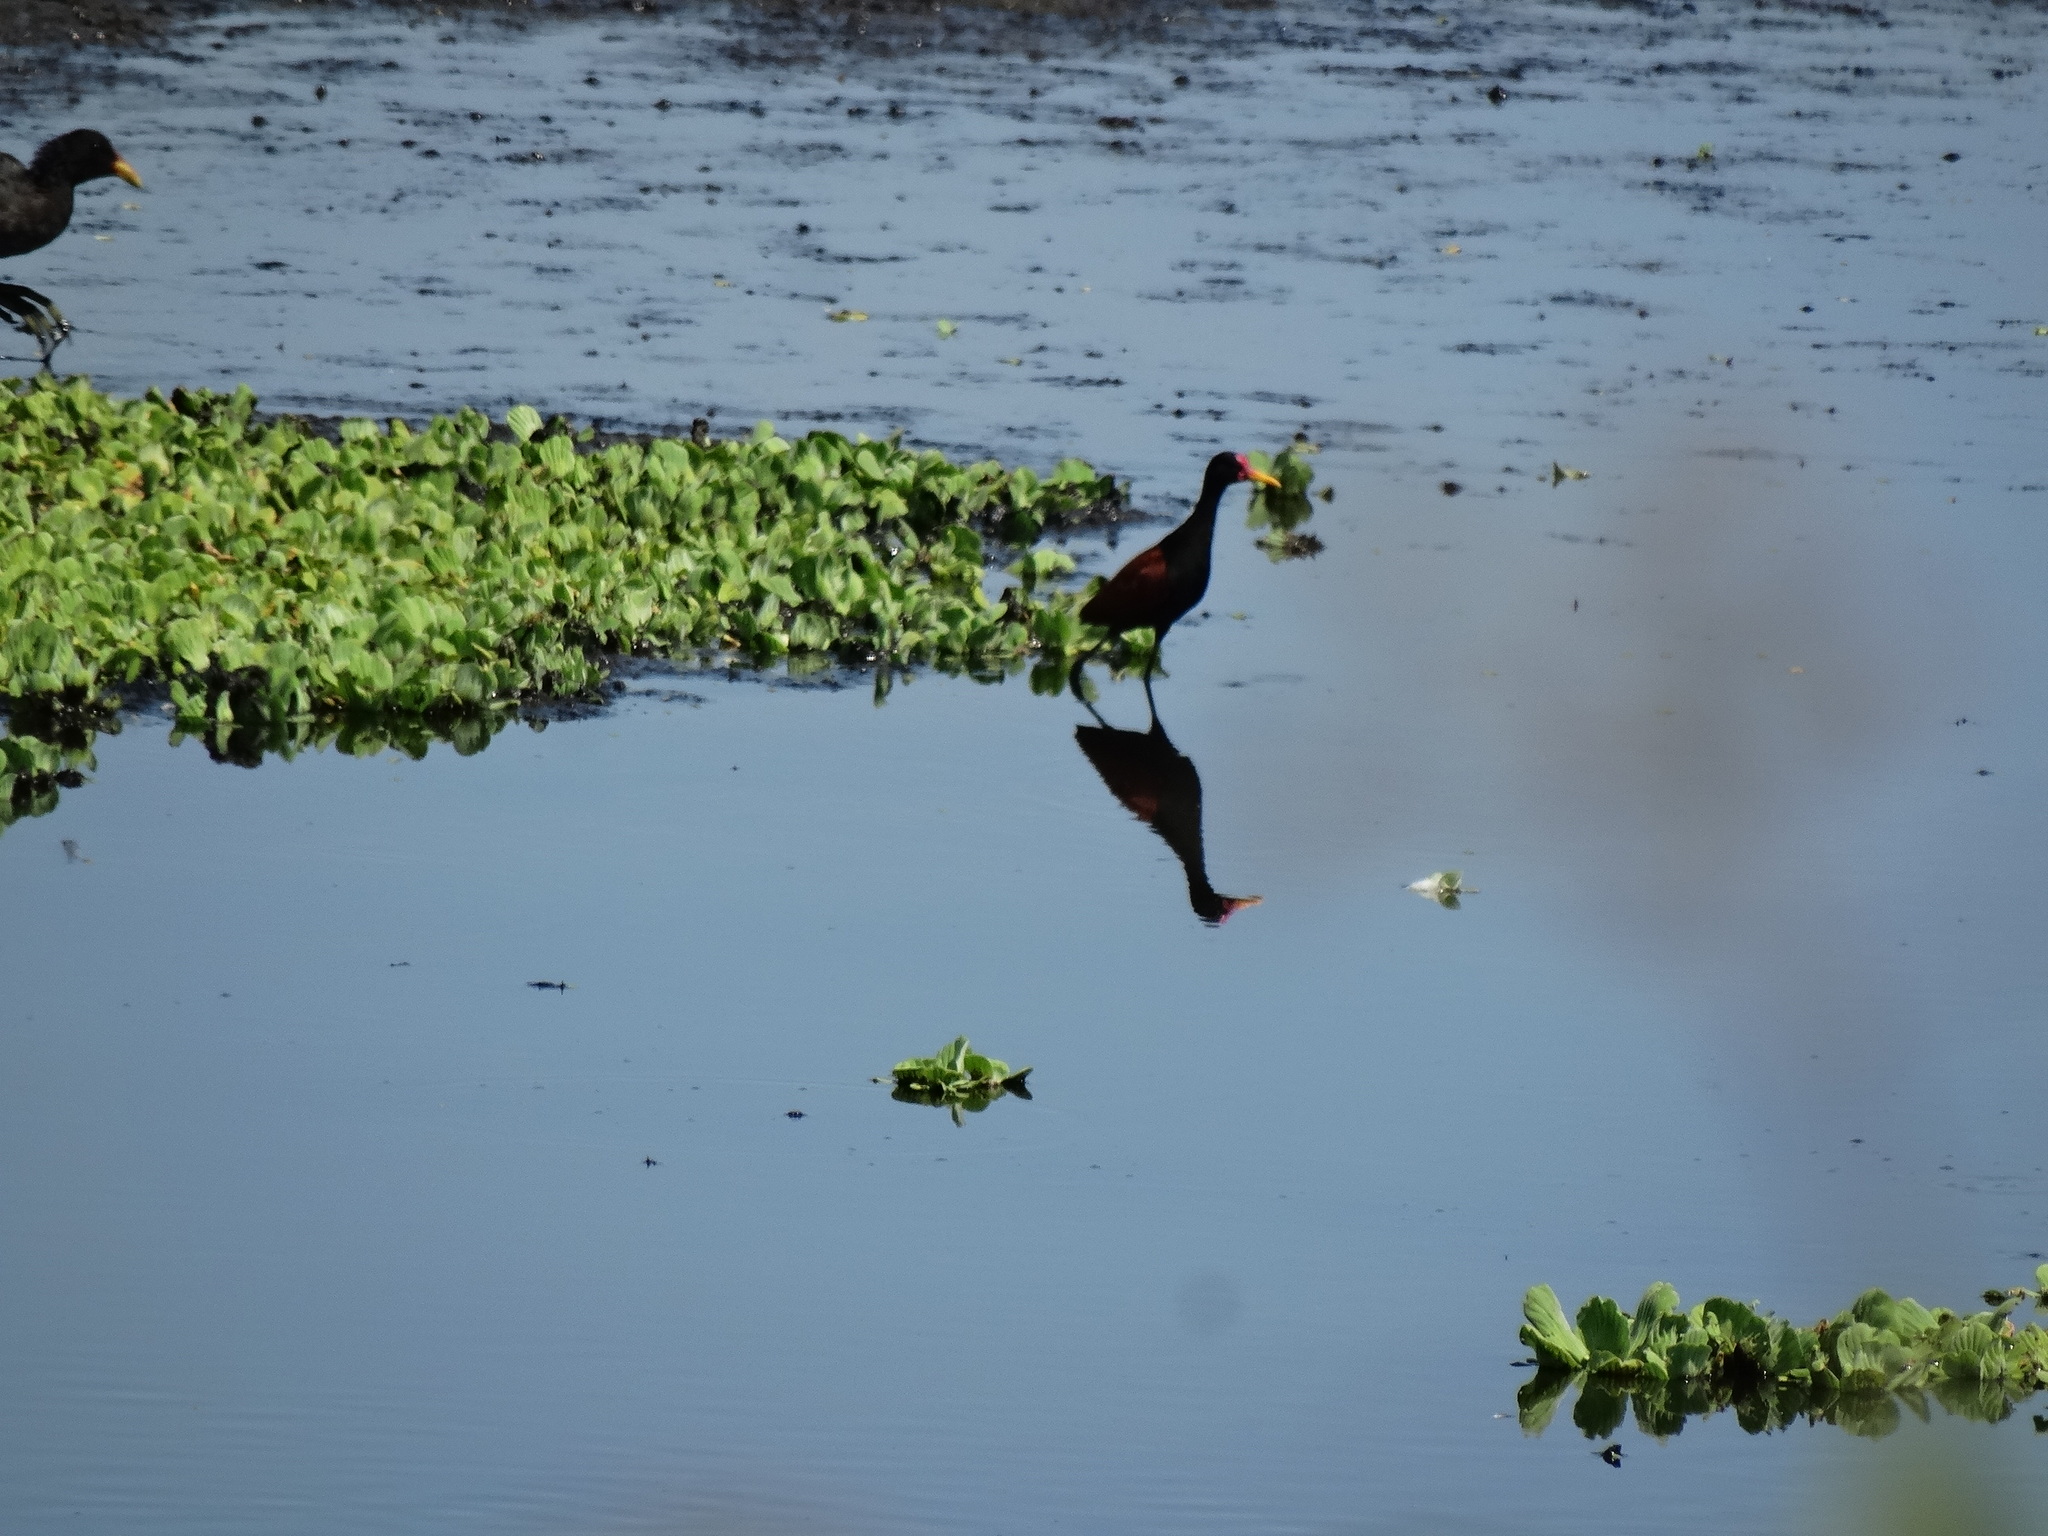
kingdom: Animalia
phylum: Chordata
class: Aves
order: Charadriiformes
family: Jacanidae
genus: Jacana
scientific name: Jacana jacana
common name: Wattled jacana
